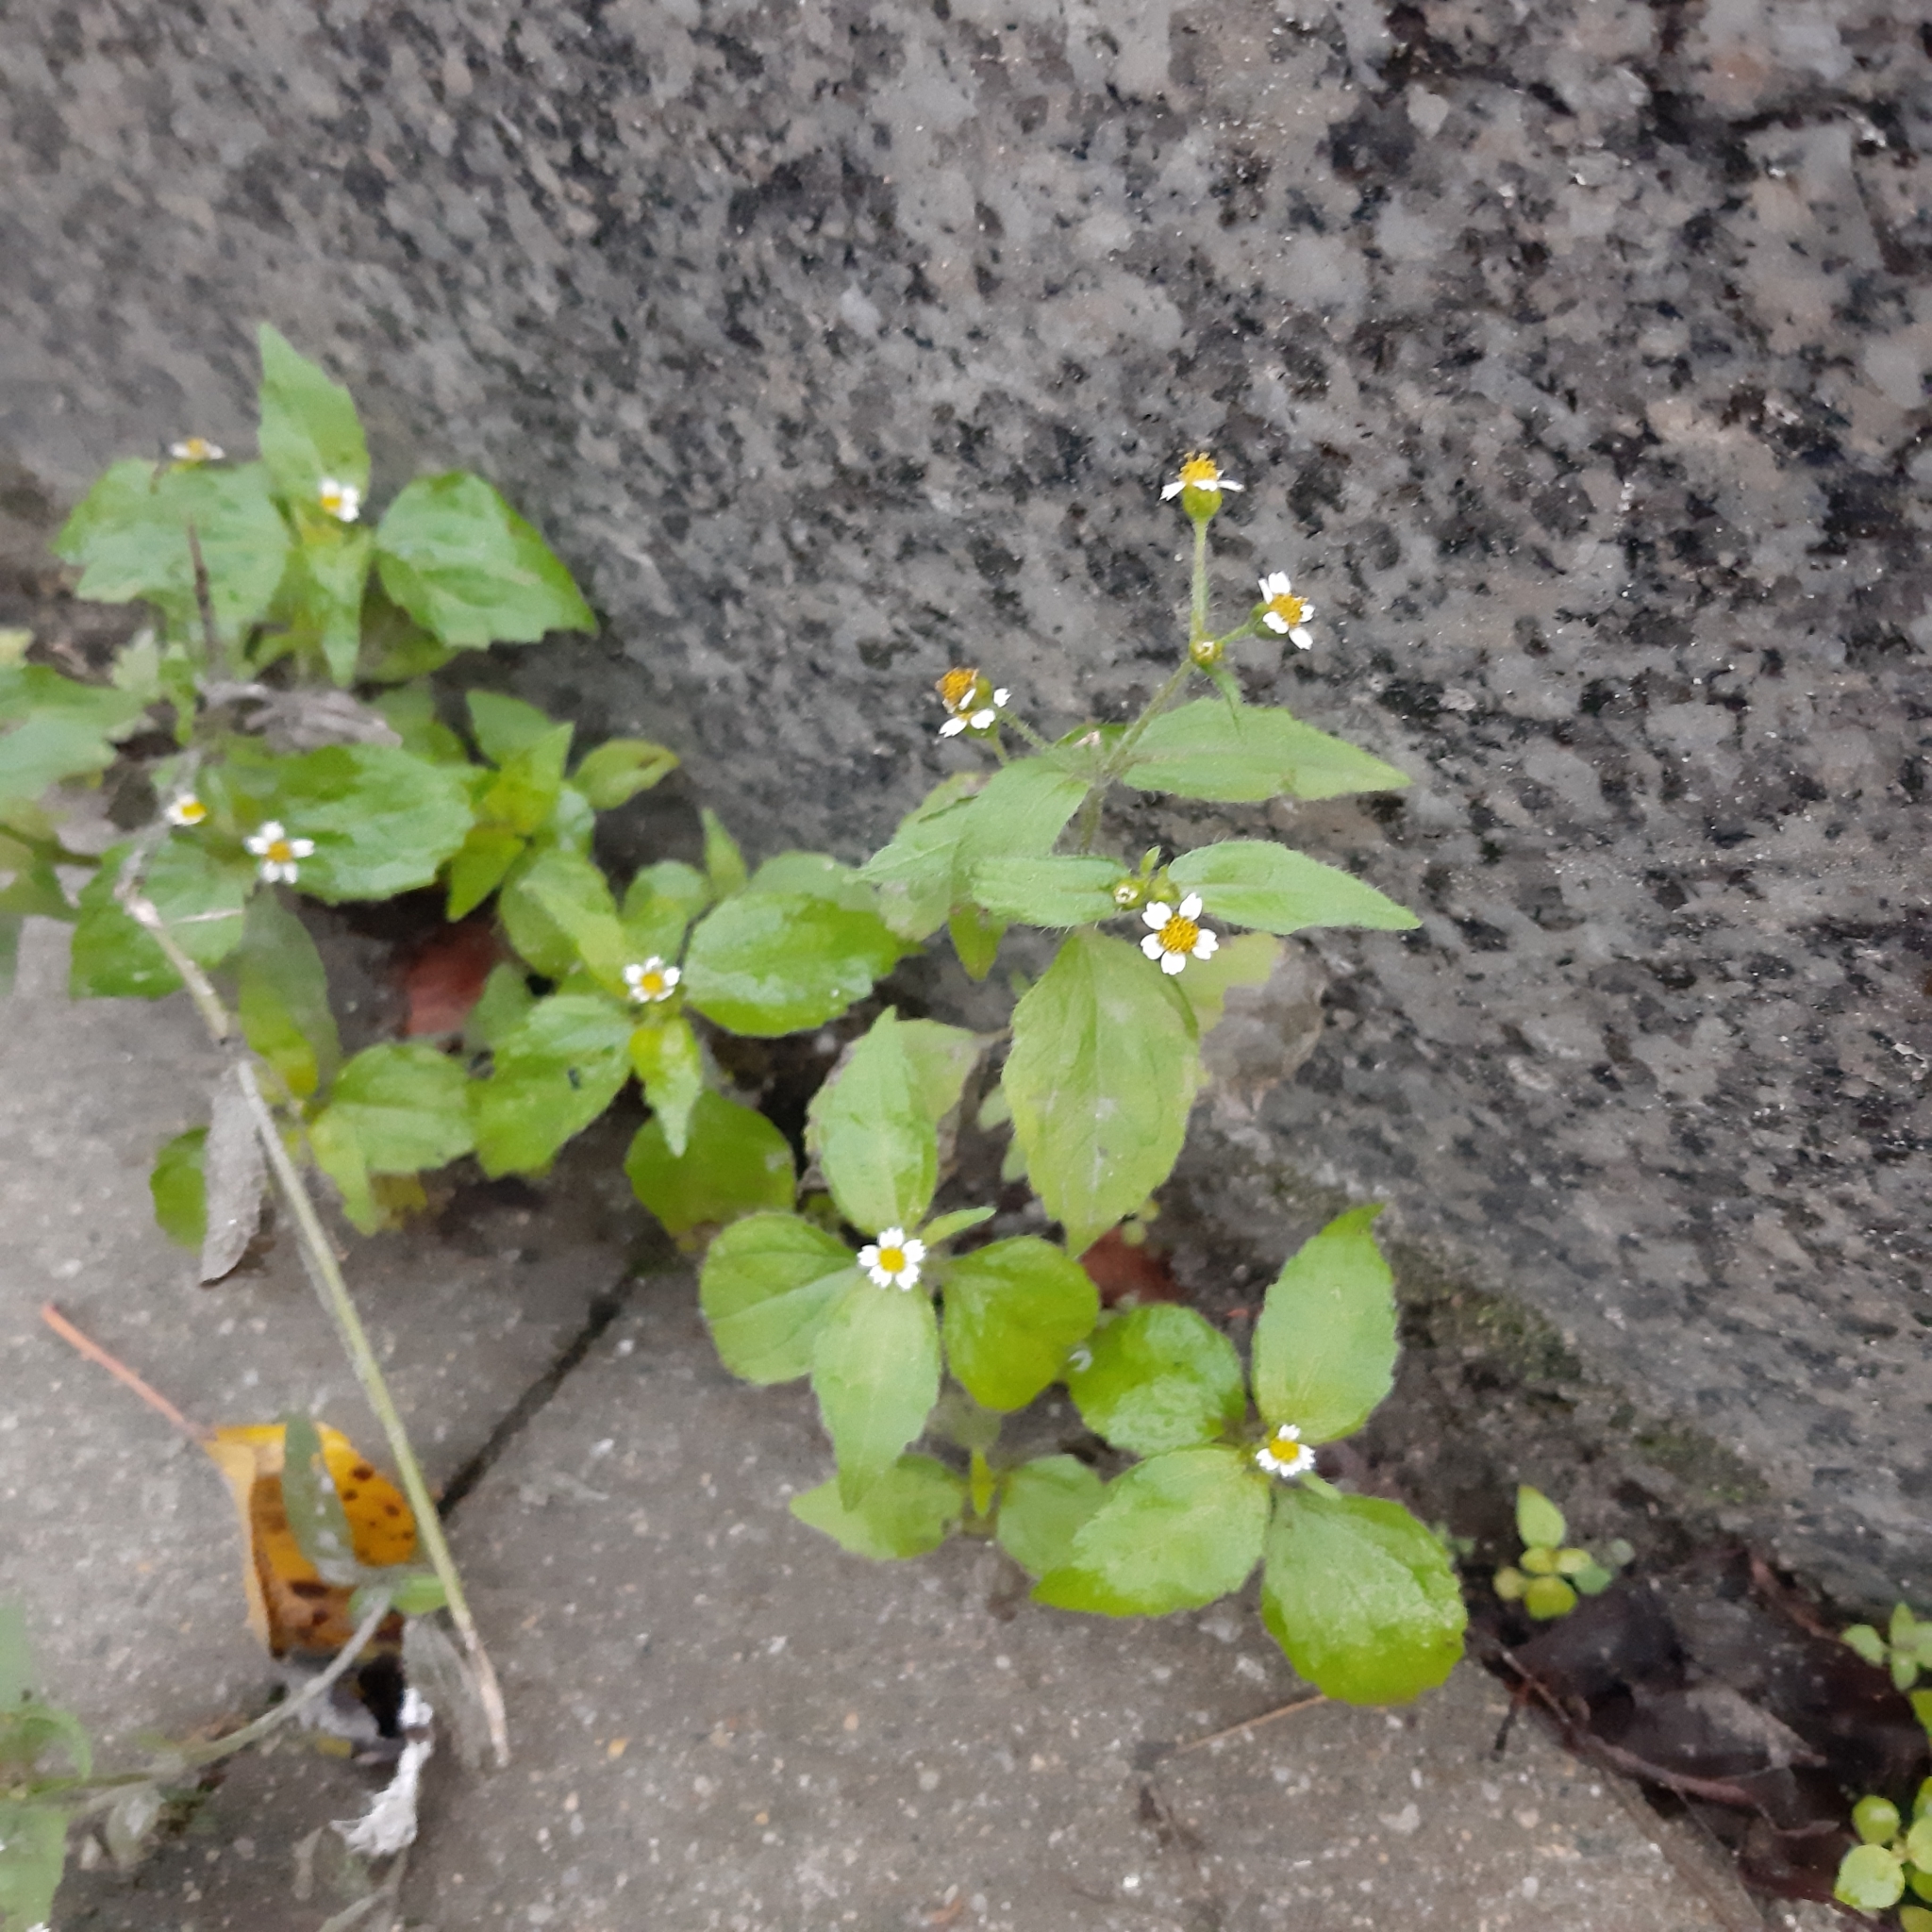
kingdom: Plantae
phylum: Tracheophyta
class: Magnoliopsida
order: Asterales
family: Asteraceae
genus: Galinsoga
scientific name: Galinsoga quadriradiata
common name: Shaggy soldier
